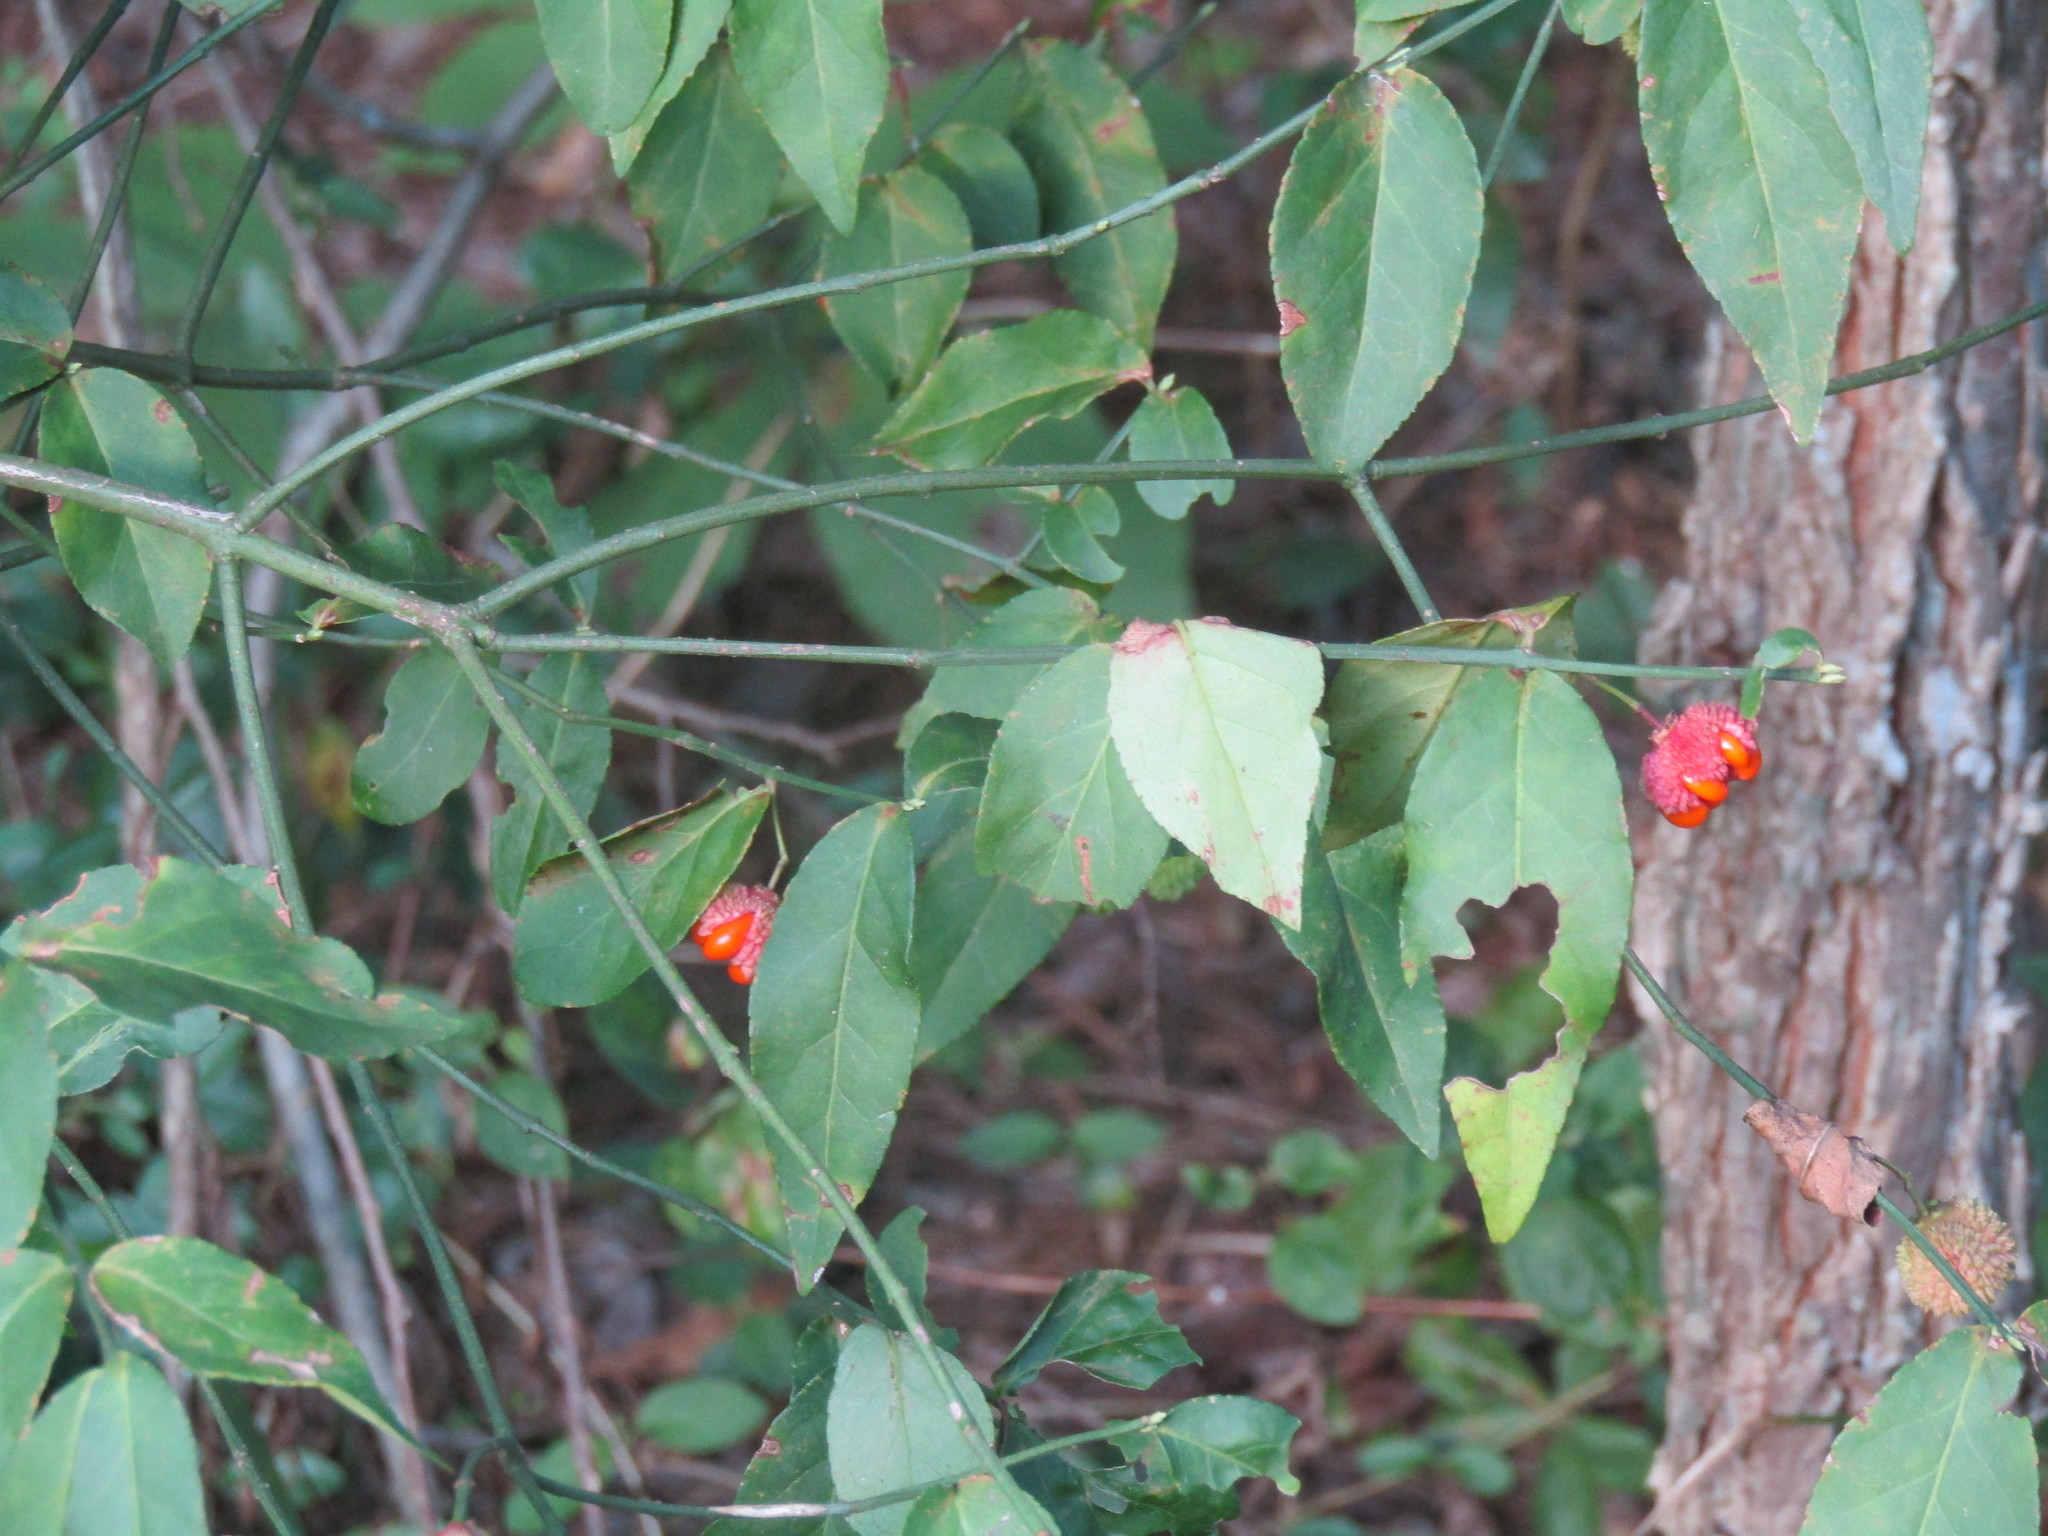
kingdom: Plantae
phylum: Tracheophyta
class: Magnoliopsida
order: Celastrales
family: Celastraceae
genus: Euonymus
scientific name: Euonymus americanus
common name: Bursting-heart
